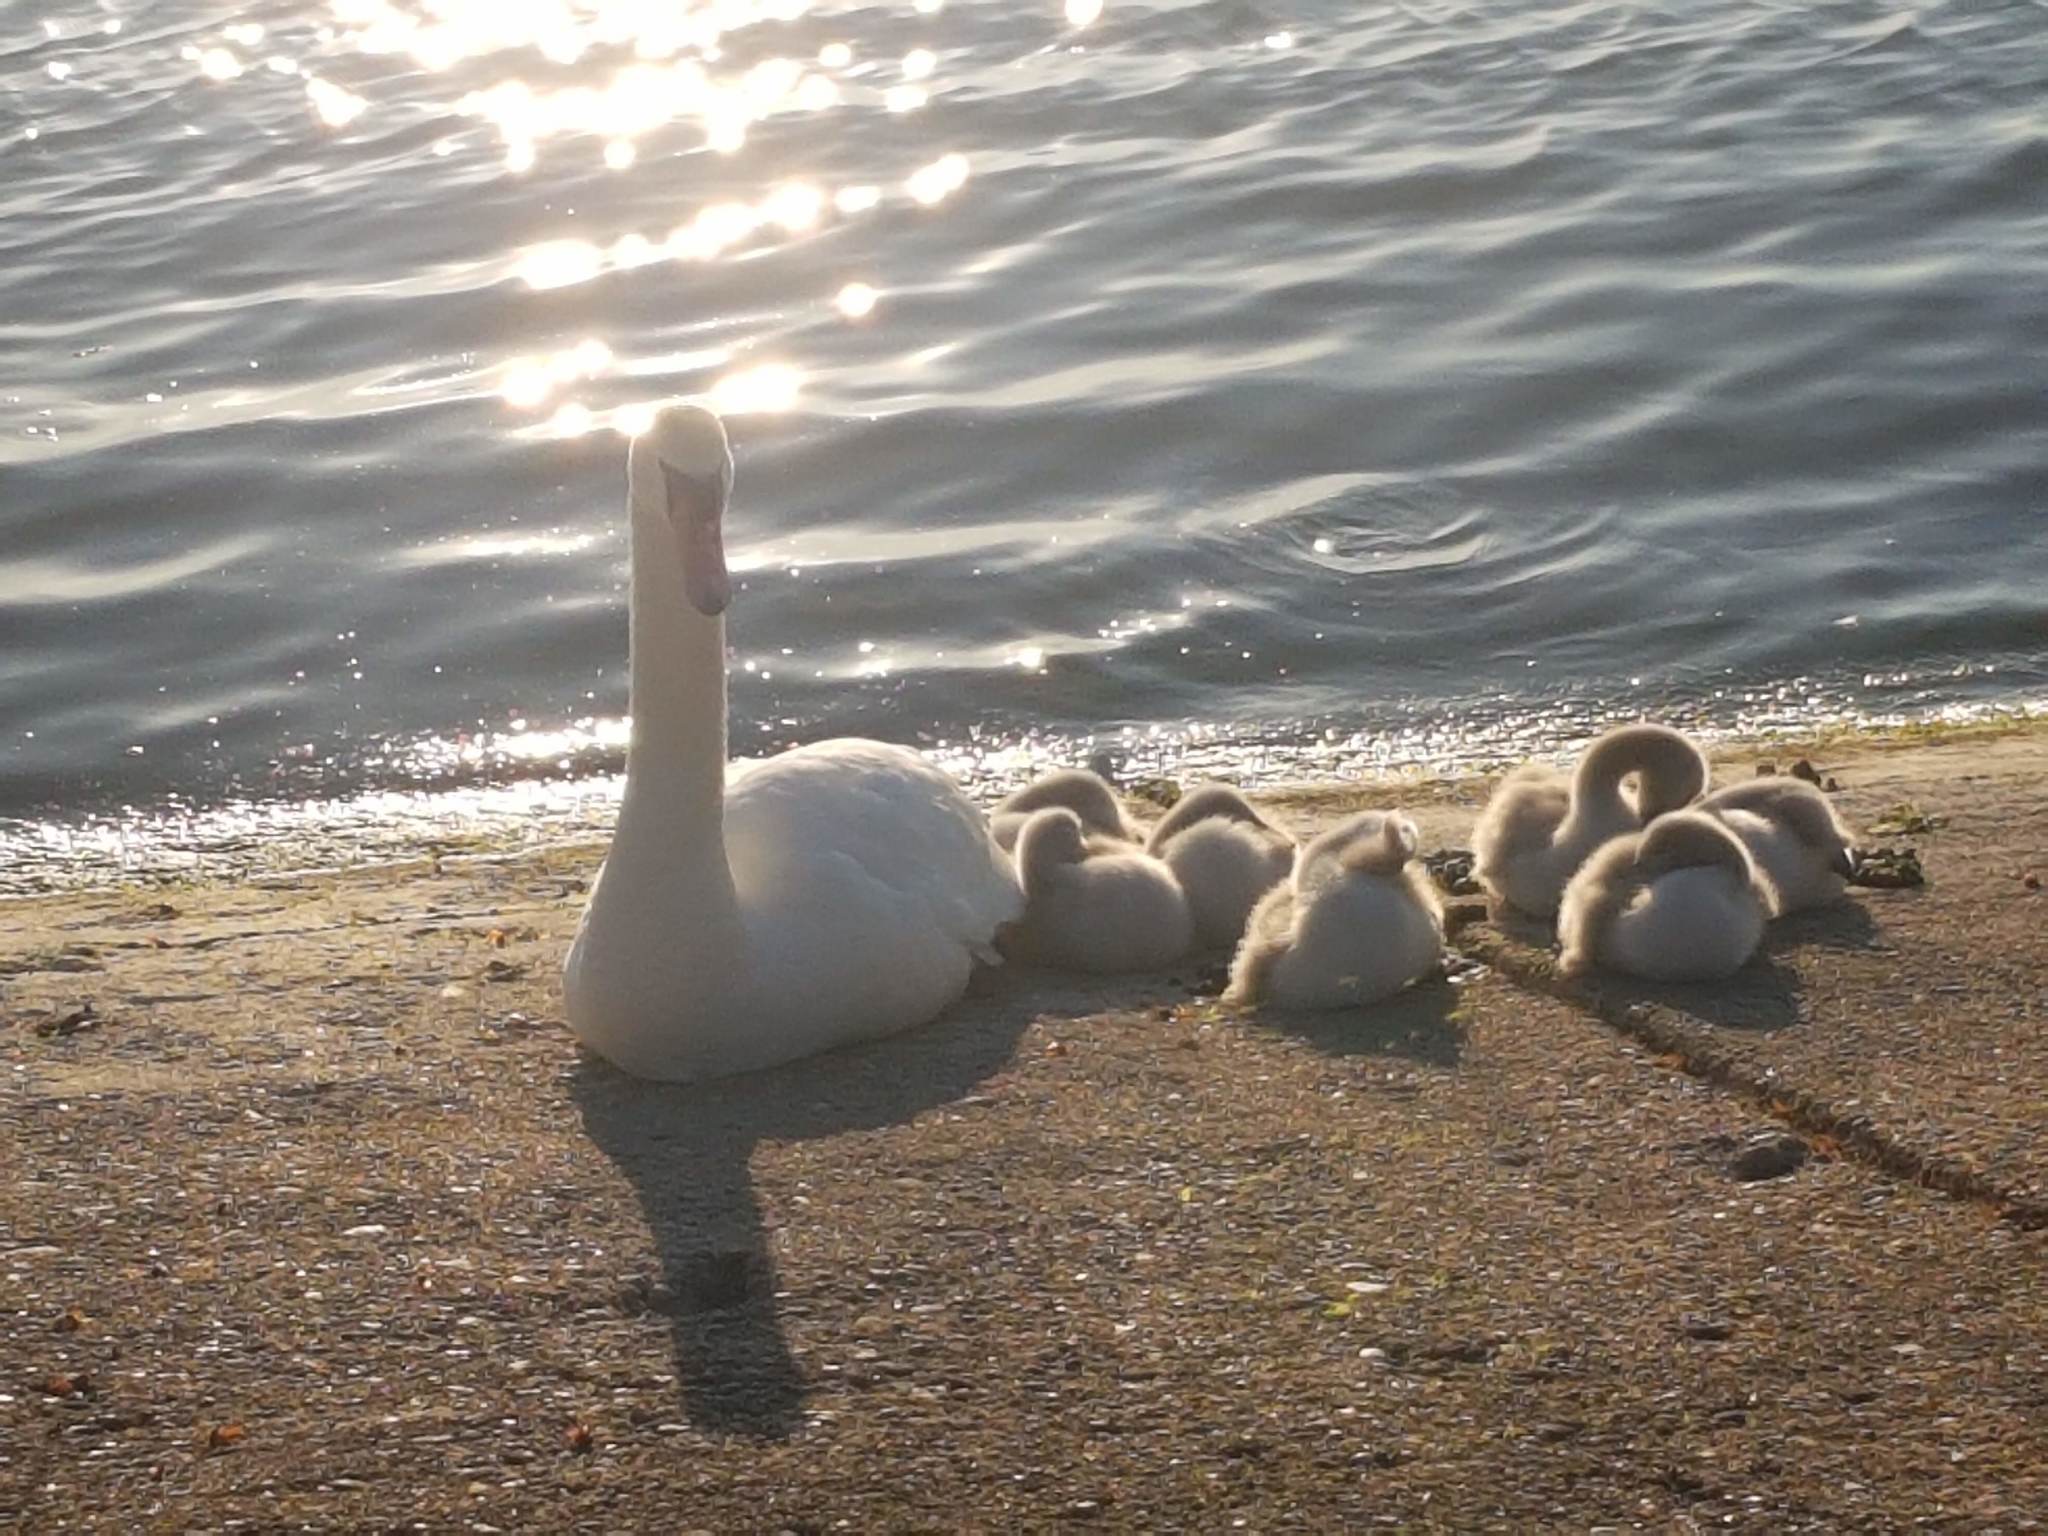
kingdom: Animalia
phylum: Chordata
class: Aves
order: Anseriformes
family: Anatidae
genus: Cygnus
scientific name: Cygnus olor
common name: Mute swan
